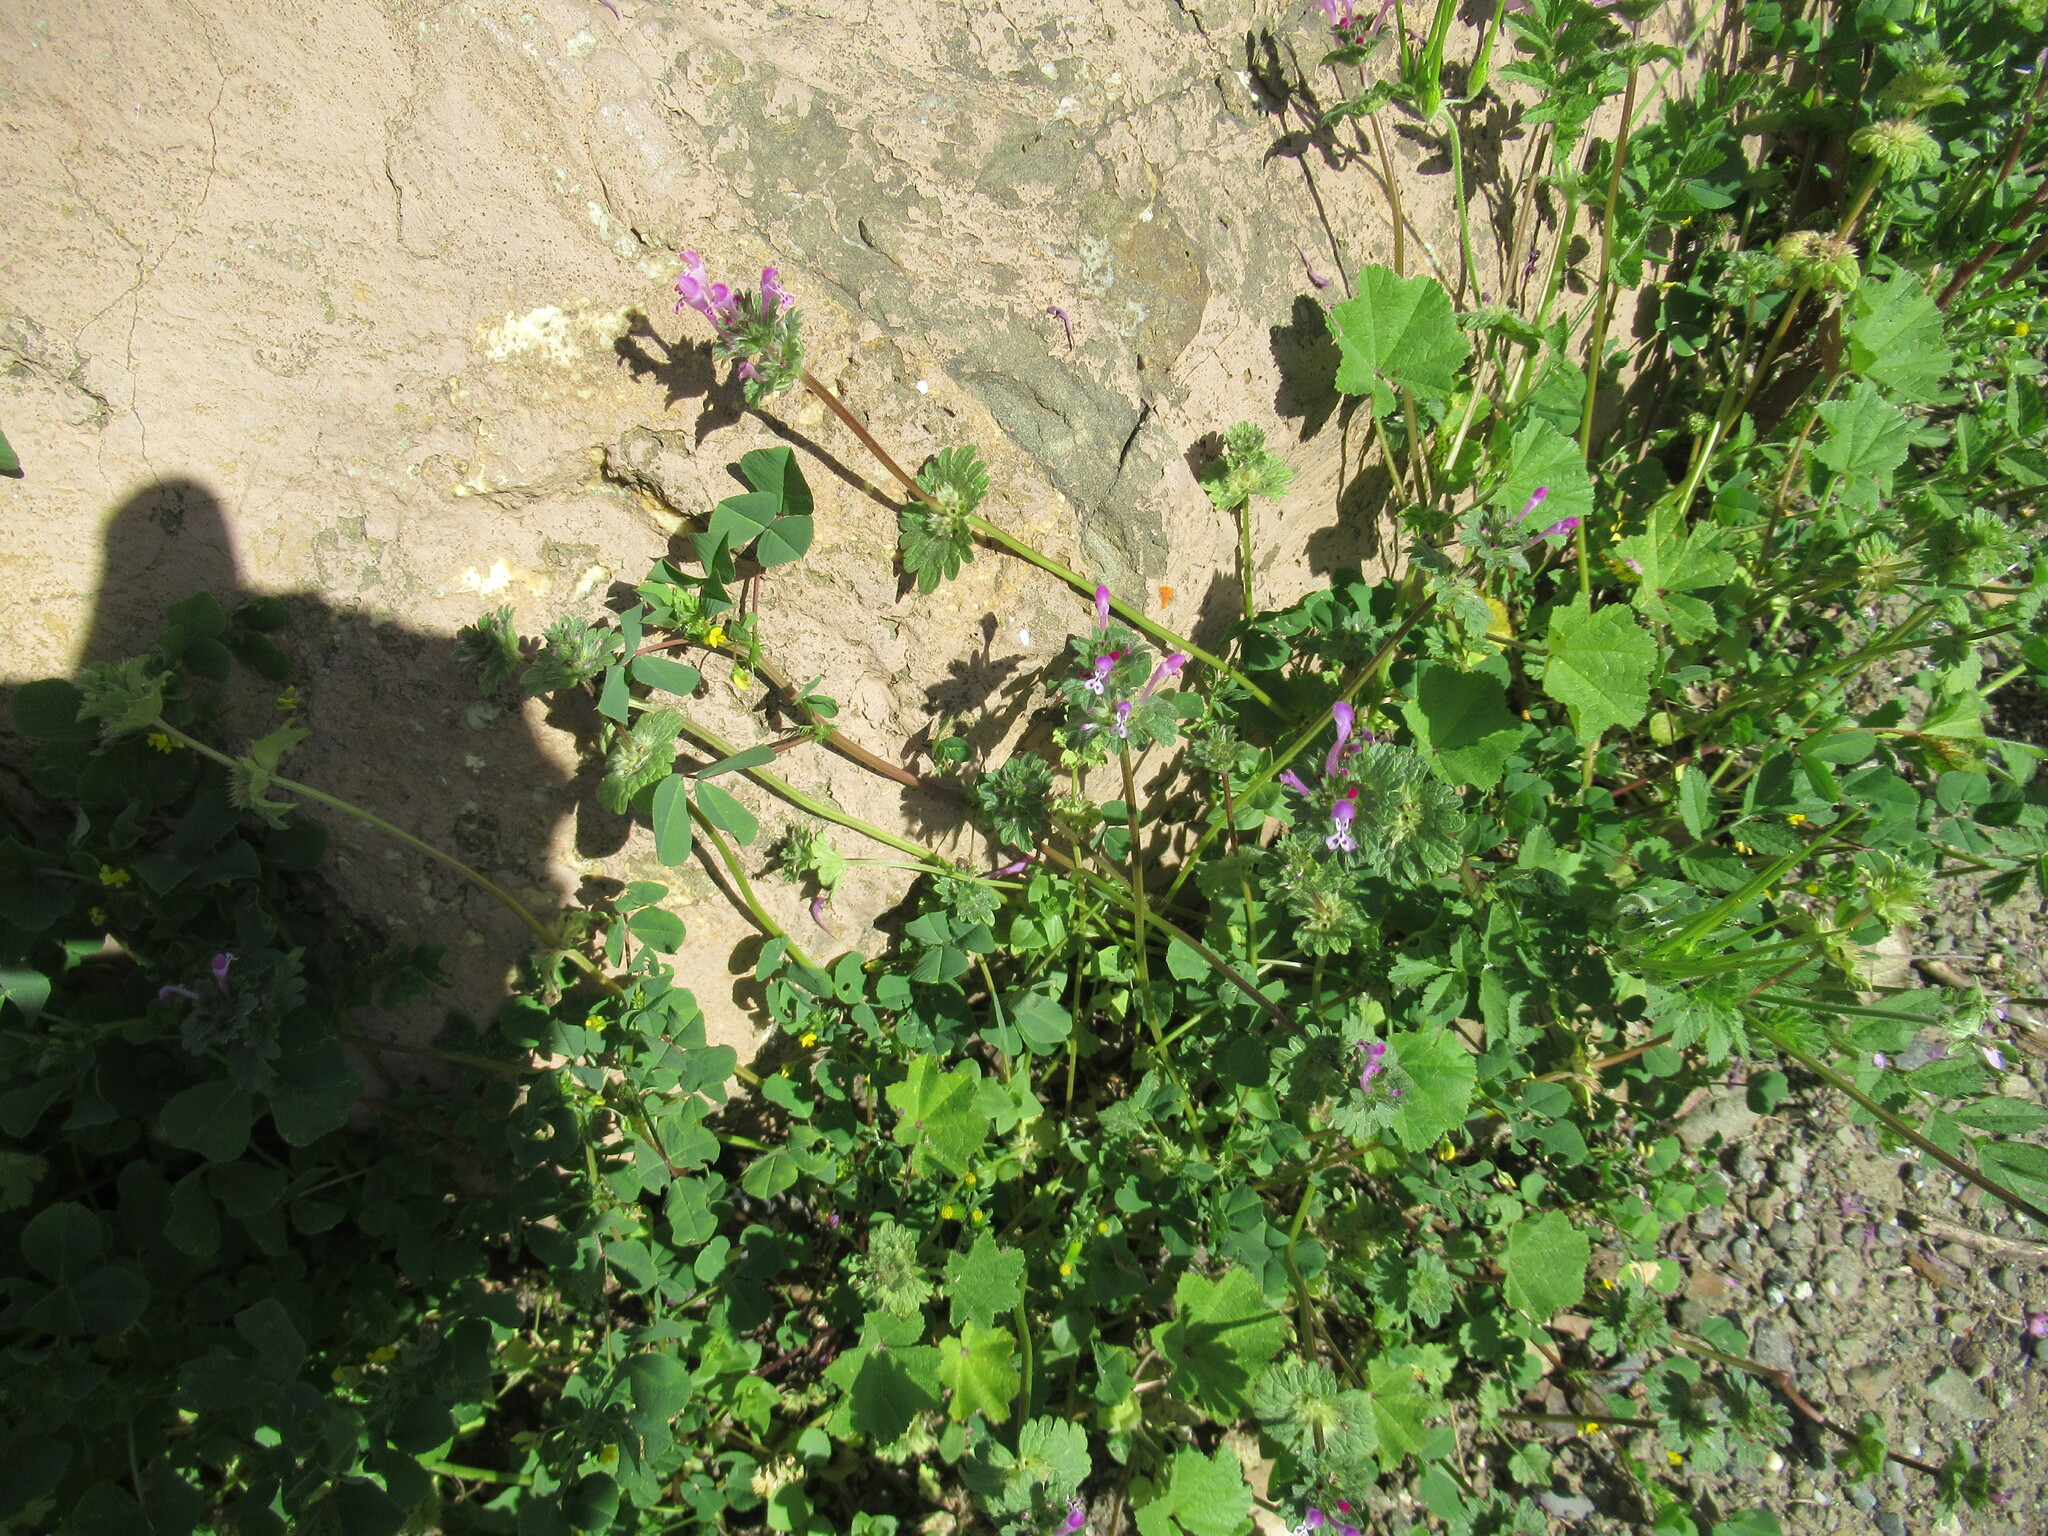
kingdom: Plantae
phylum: Tracheophyta
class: Magnoliopsida
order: Lamiales
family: Lamiaceae
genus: Lamium
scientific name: Lamium amplexicaule
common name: Henbit dead-nettle
